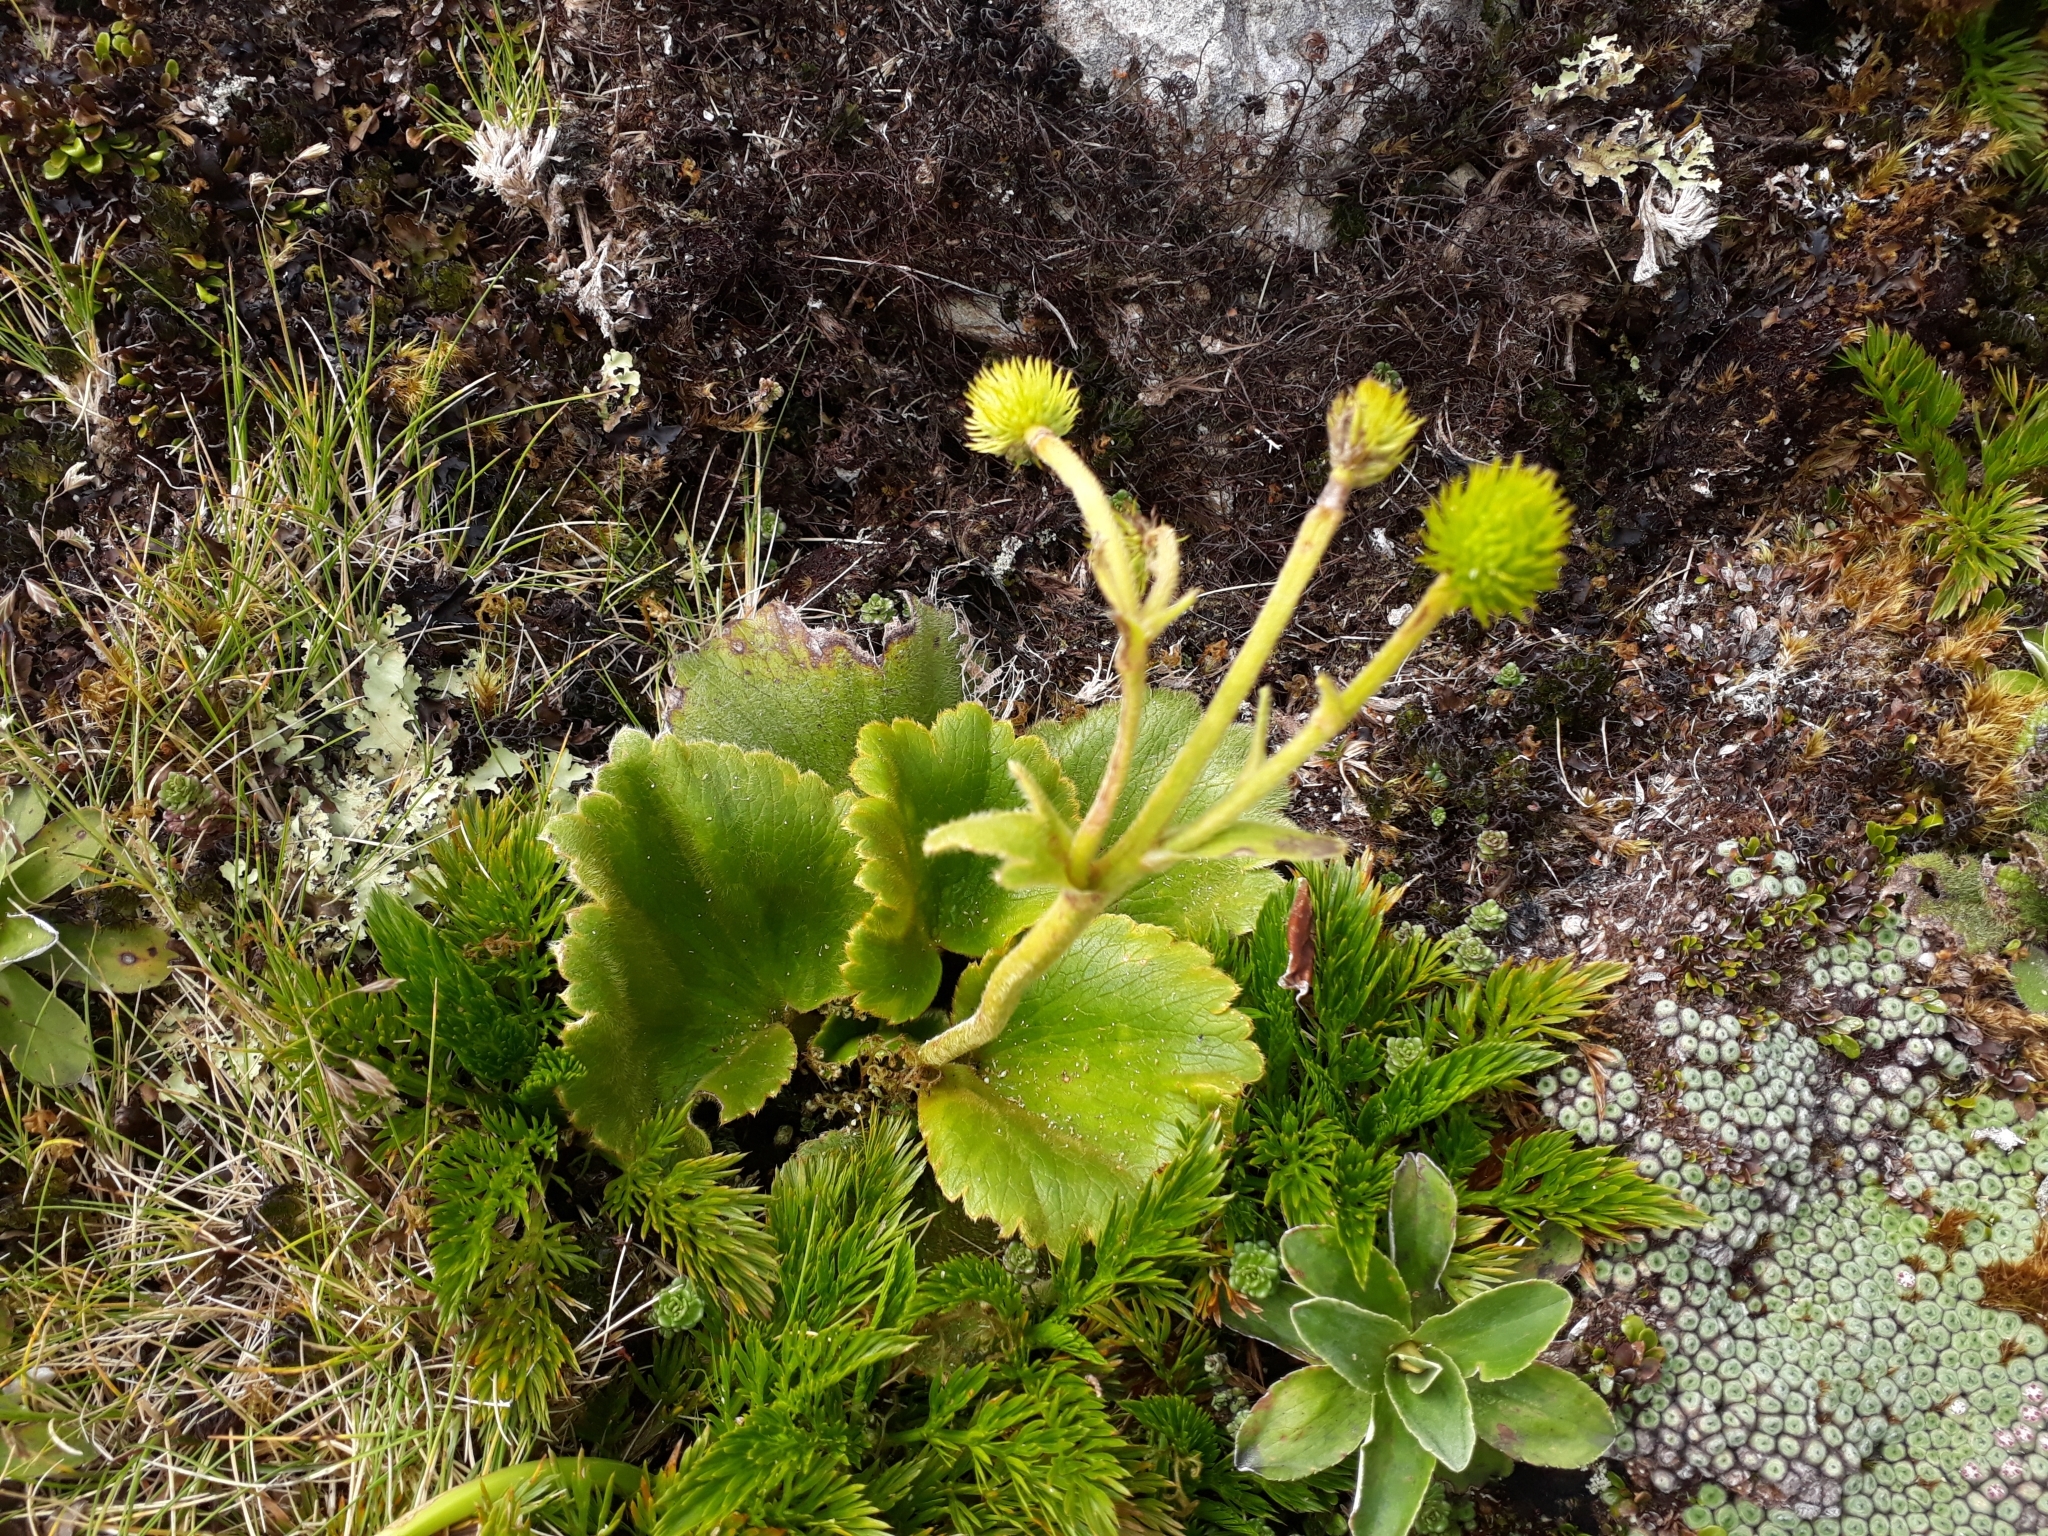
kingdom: Plantae
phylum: Tracheophyta
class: Magnoliopsida
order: Ranunculales
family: Ranunculaceae
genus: Ranunculus
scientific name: Ranunculus insignis
